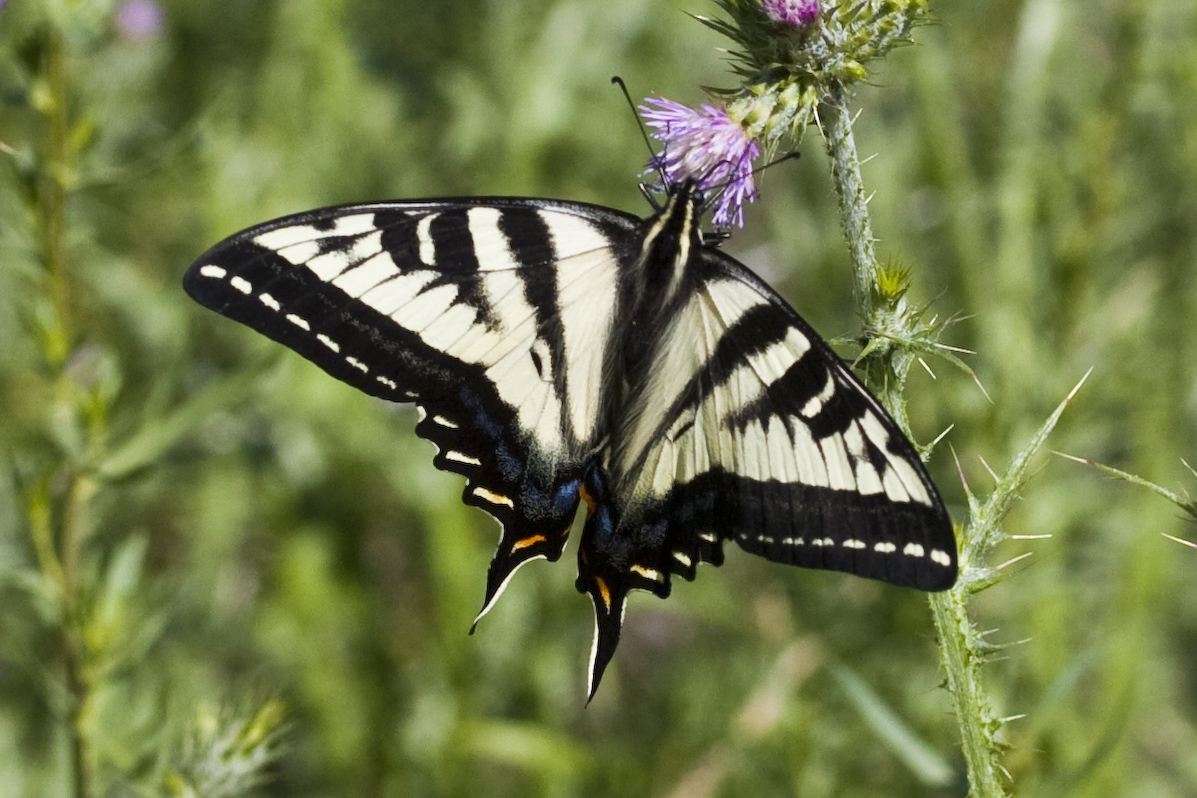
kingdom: Animalia
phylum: Arthropoda
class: Insecta
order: Lepidoptera
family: Papilionidae
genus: Papilio
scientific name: Papilio eurymedon
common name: Pale tiger swallowtail
